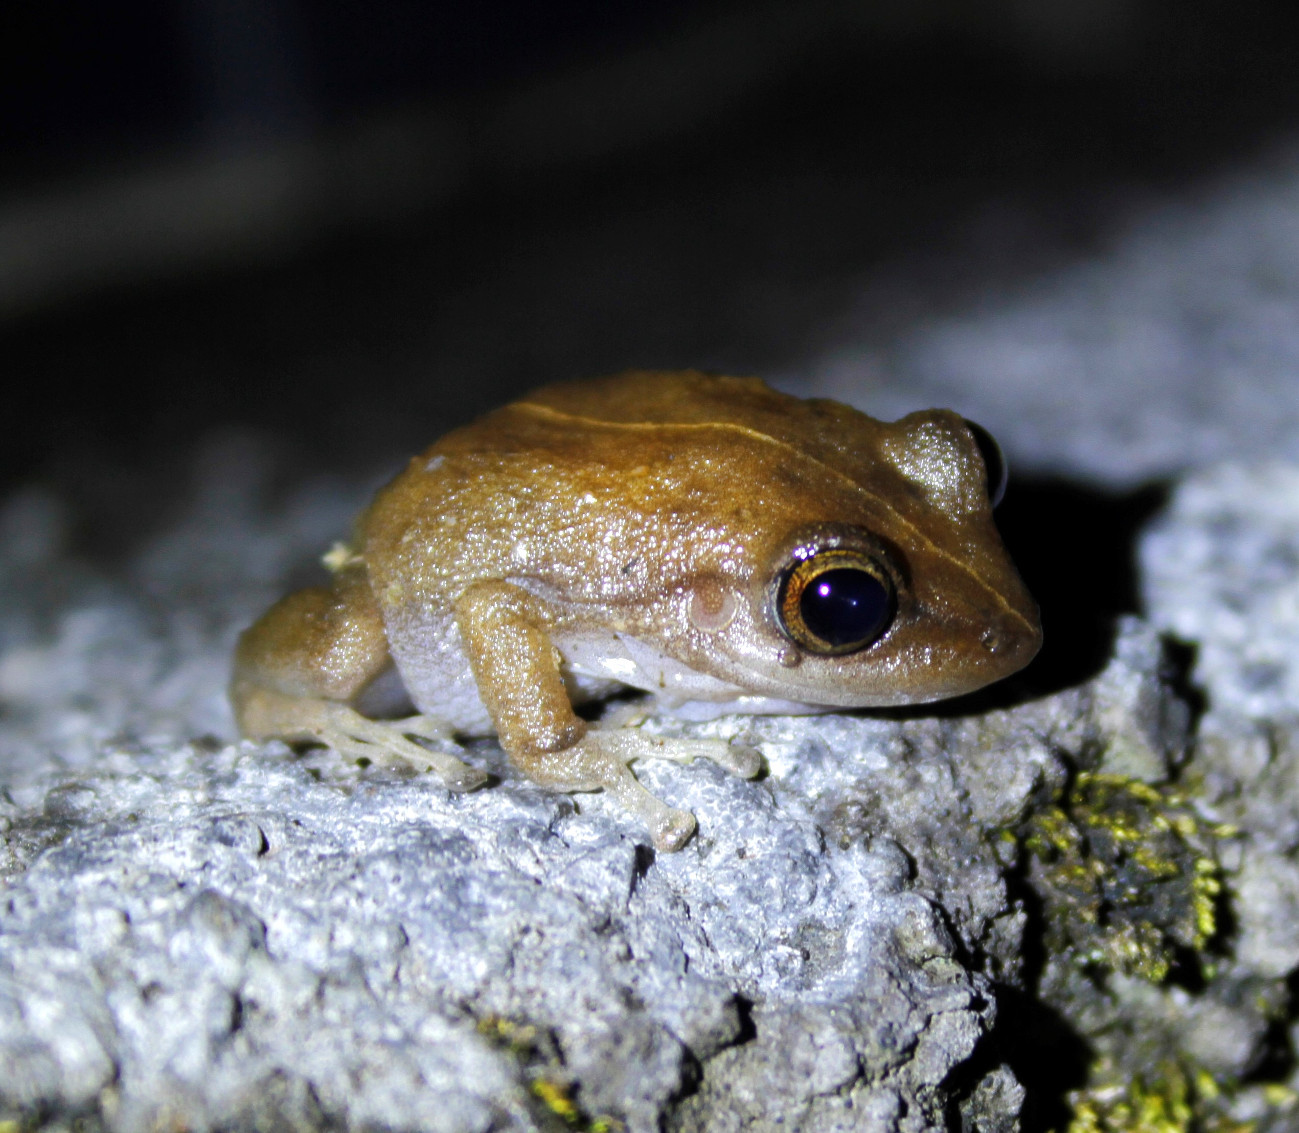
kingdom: Animalia
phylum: Chordata
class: Amphibia
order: Anura
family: Eleutherodactylidae
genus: Eleutherodactylus
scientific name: Eleutherodactylus coqui
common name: Coqui frog
